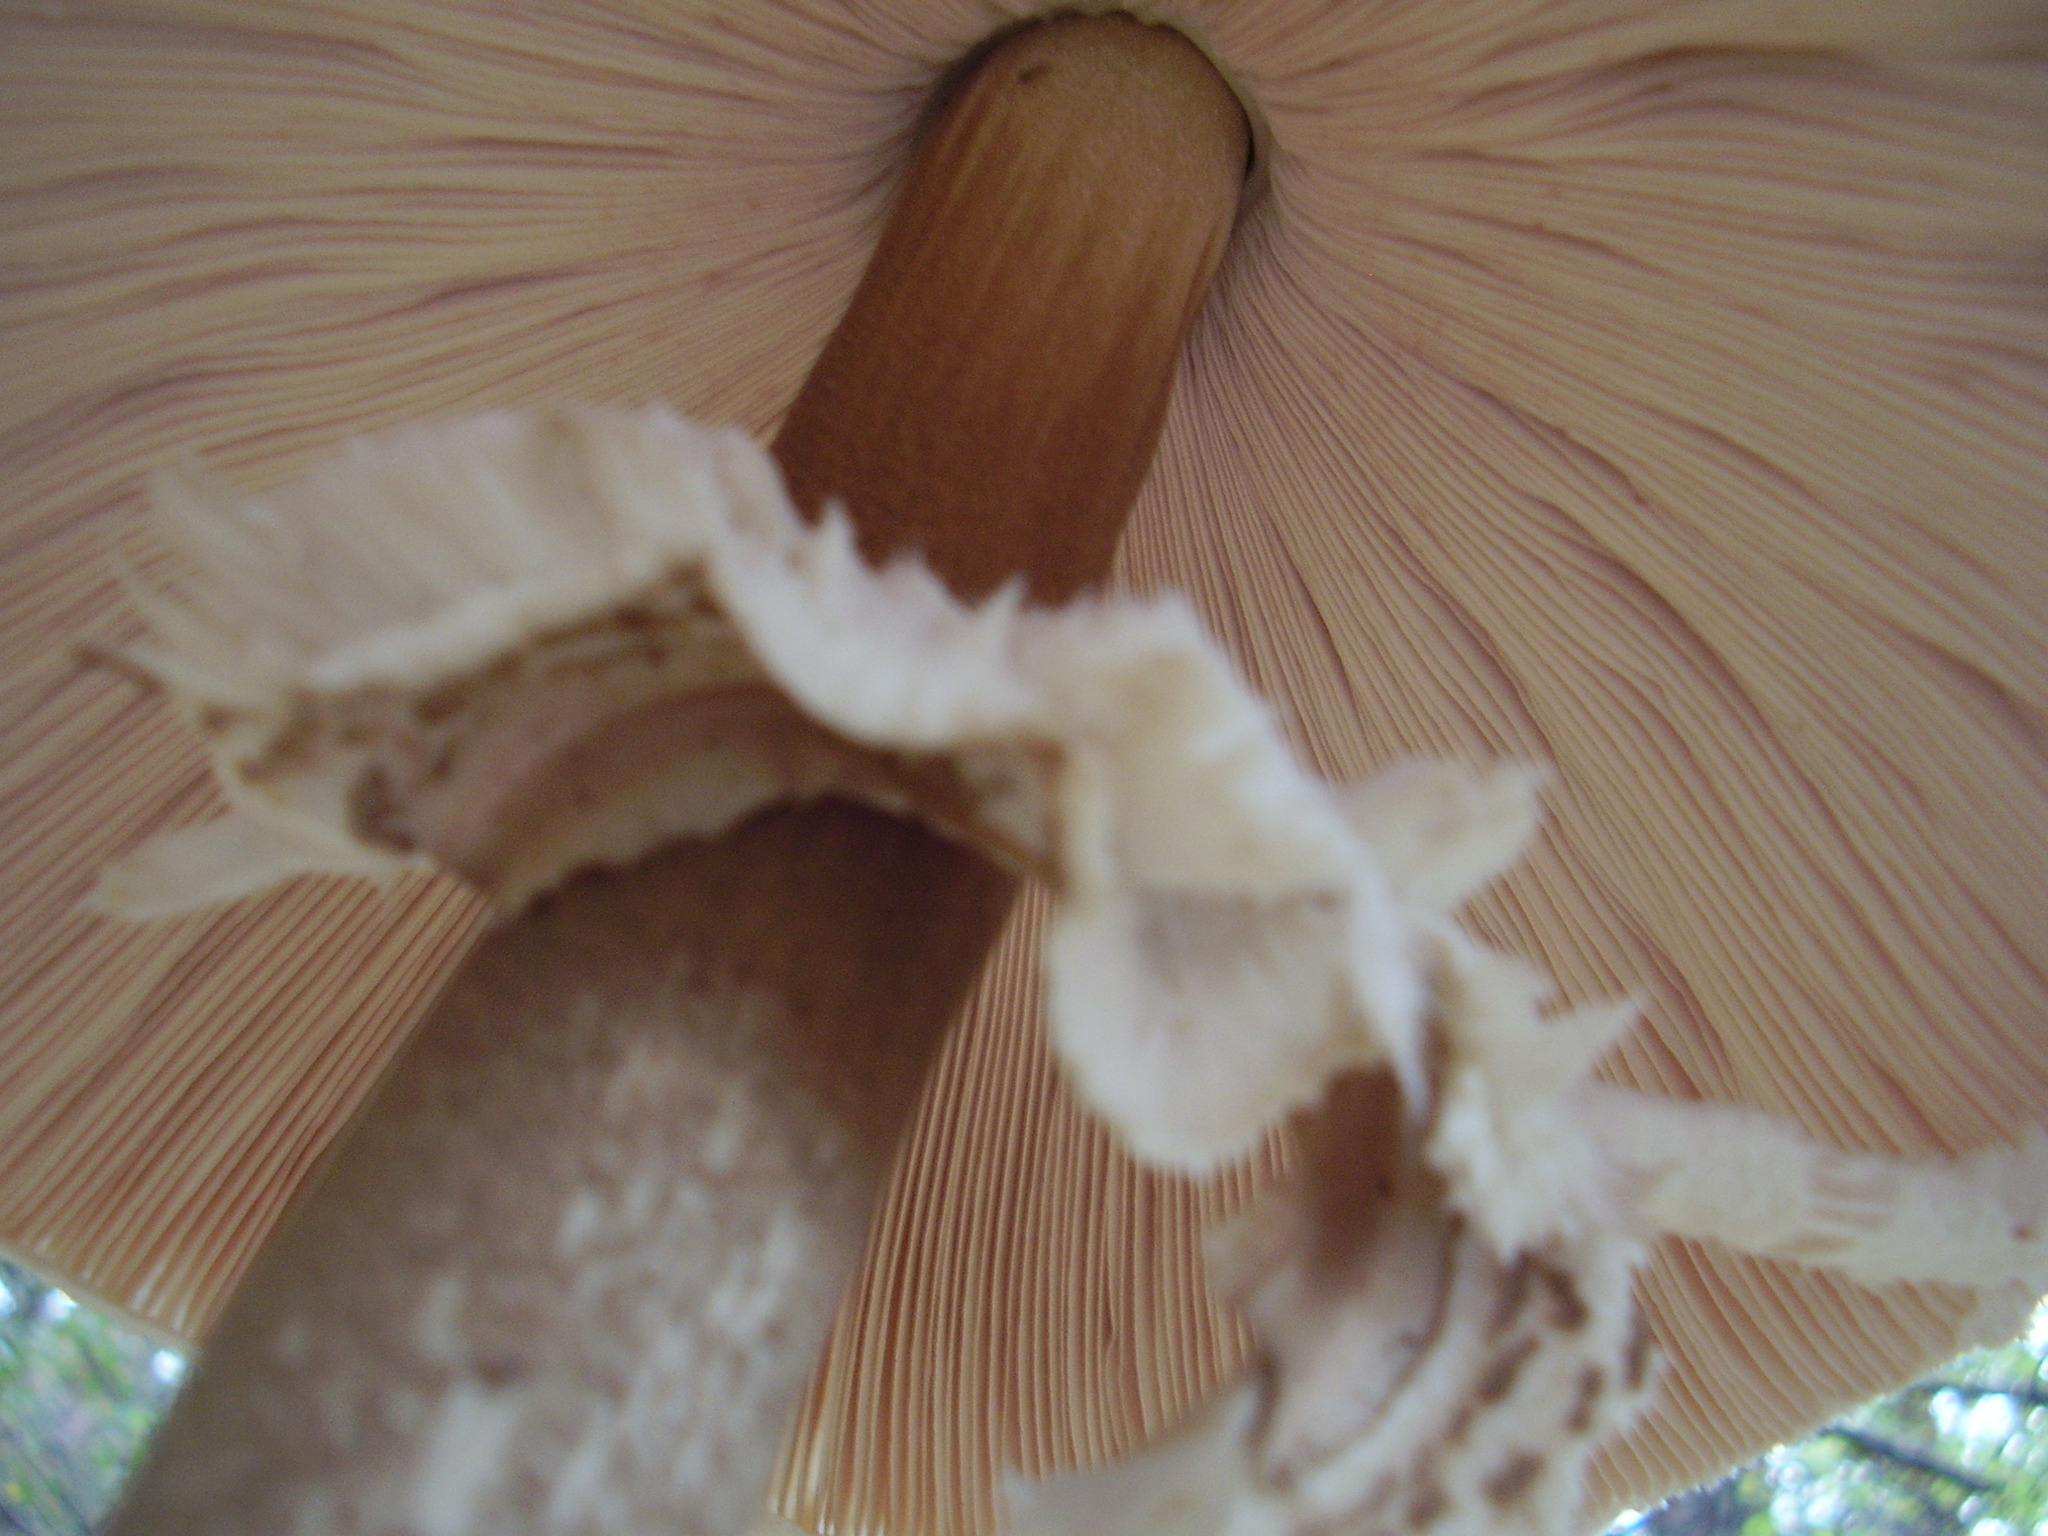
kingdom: Fungi
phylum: Basidiomycota
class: Agaricomycetes
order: Agaricales
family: Agaricaceae
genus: Macrolepiota
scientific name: Macrolepiota procera
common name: Parasol
